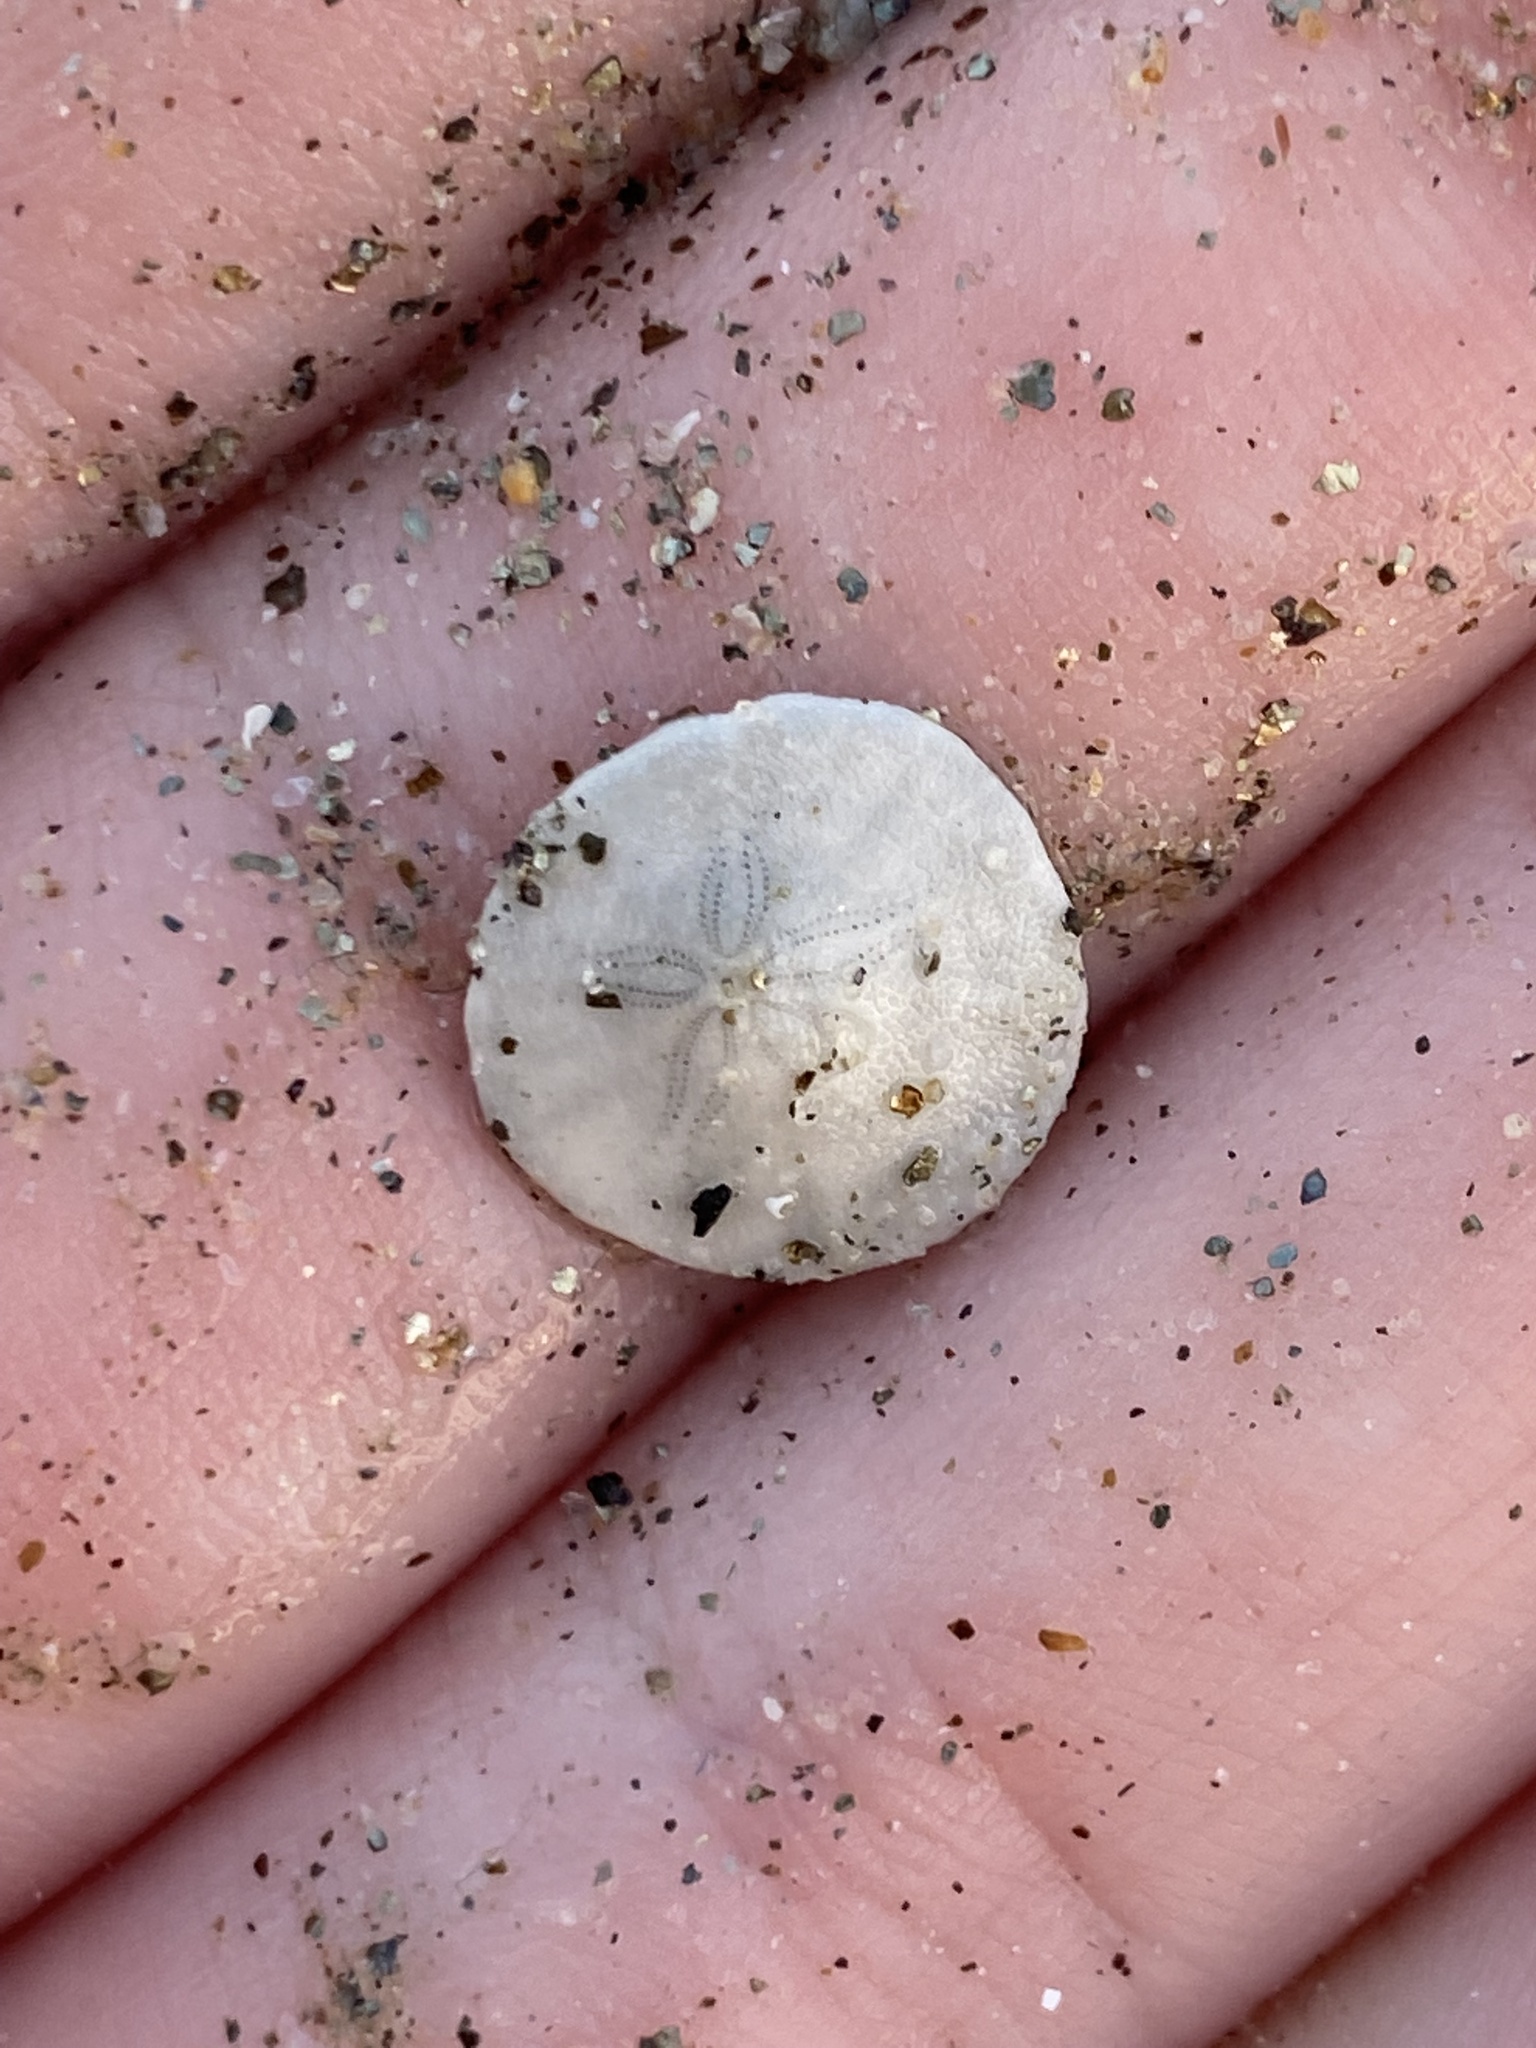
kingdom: Animalia
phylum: Echinodermata
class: Echinoidea
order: Echinolampadacea
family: Dendrasteridae
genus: Dendraster
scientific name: Dendraster excentricus
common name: Eccentric sand dollar sea urchin
